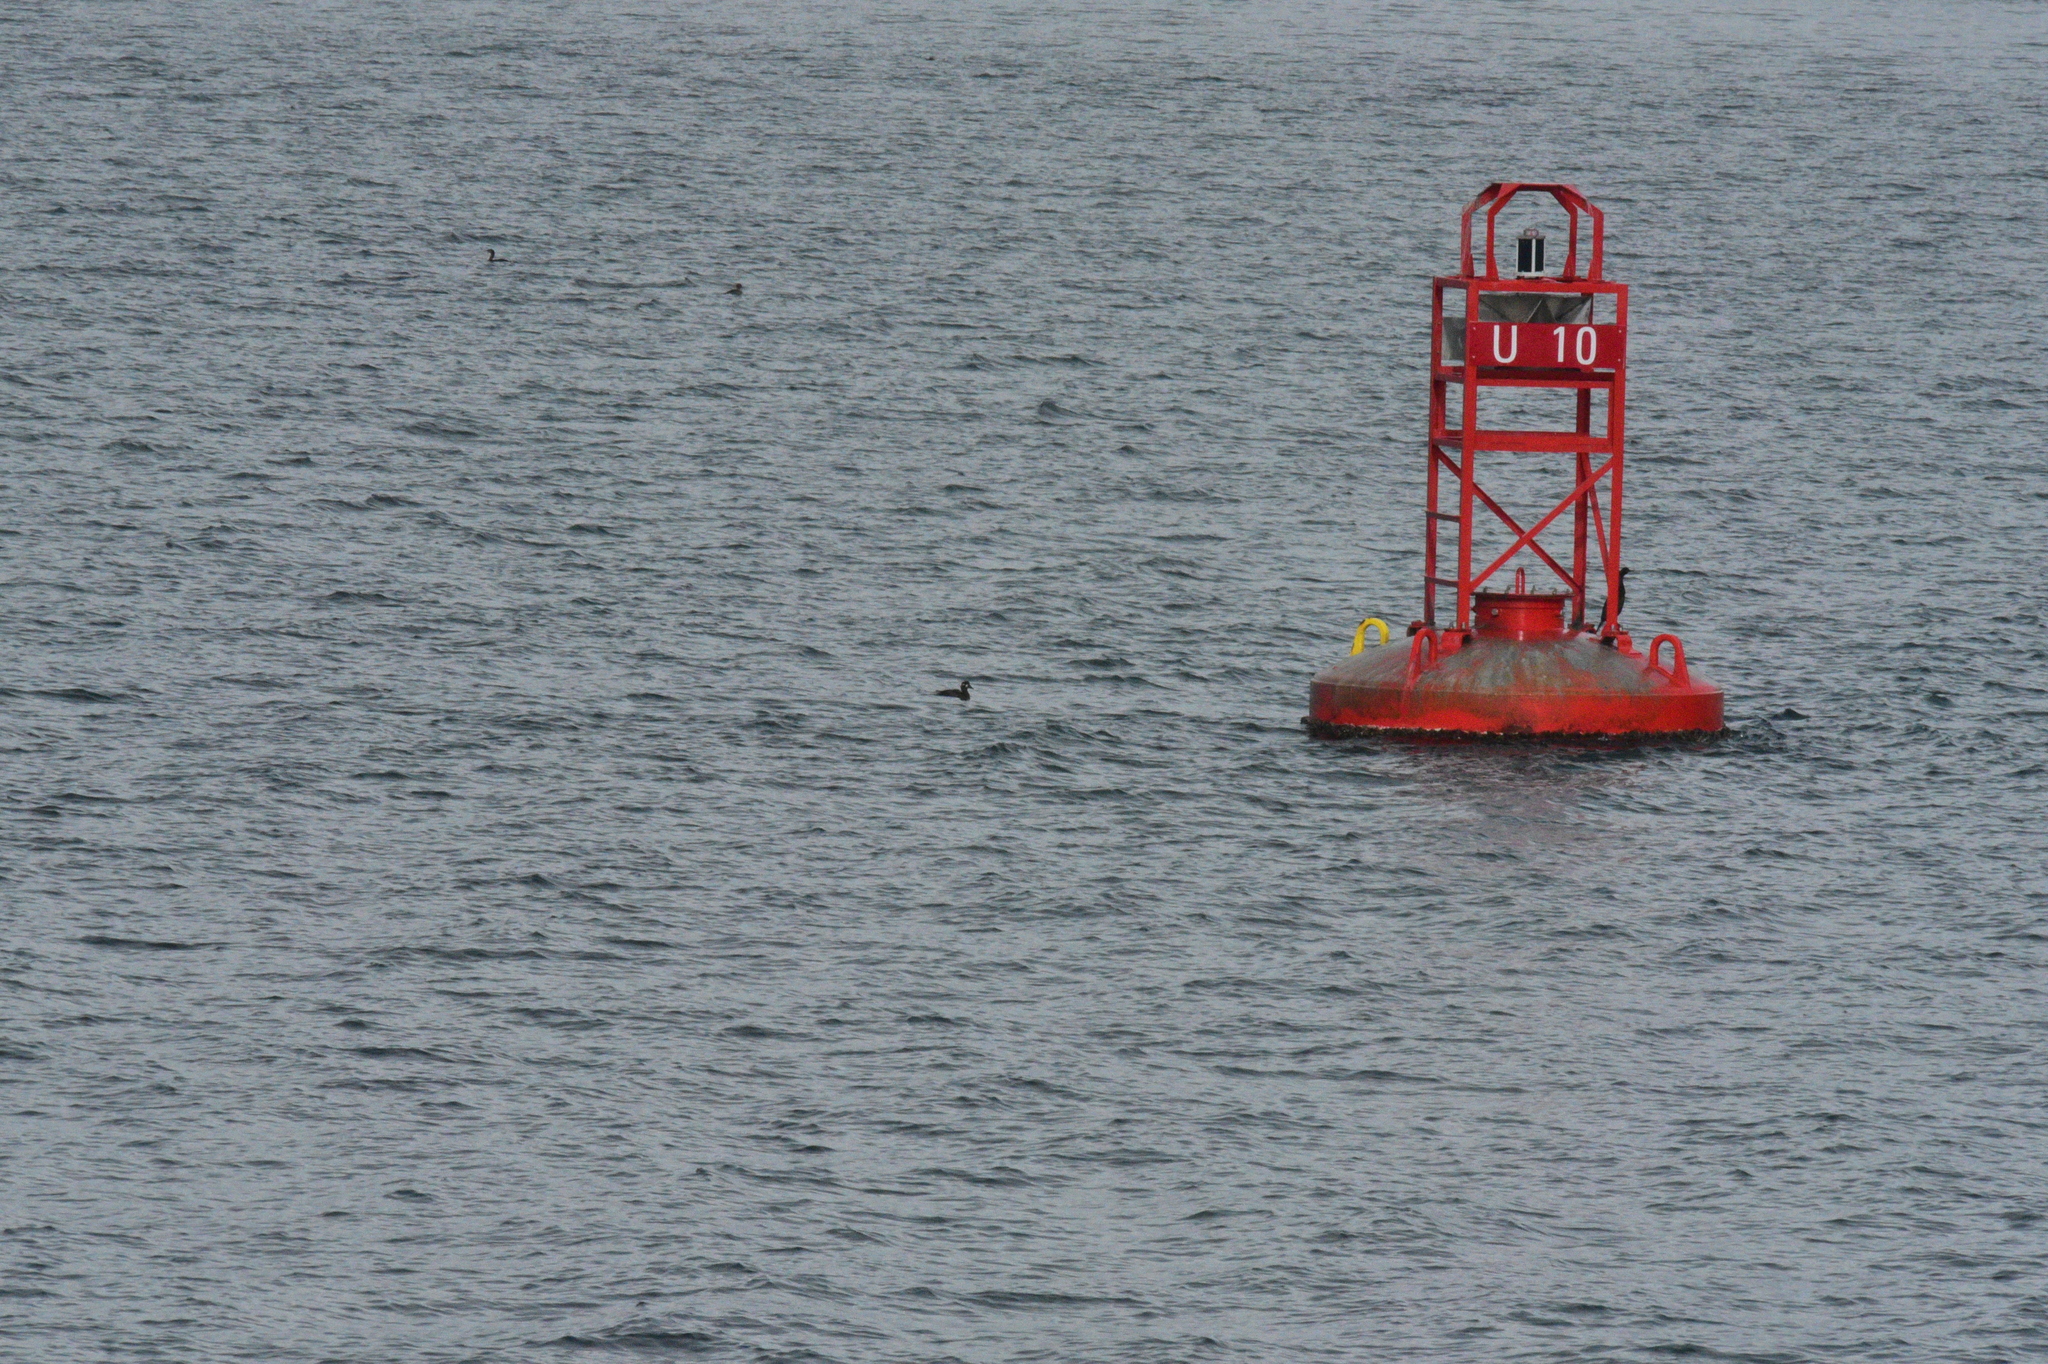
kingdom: Animalia
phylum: Chordata
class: Aves
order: Anseriformes
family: Anatidae
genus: Melanitta
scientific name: Melanitta perspicillata
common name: Surf scoter
